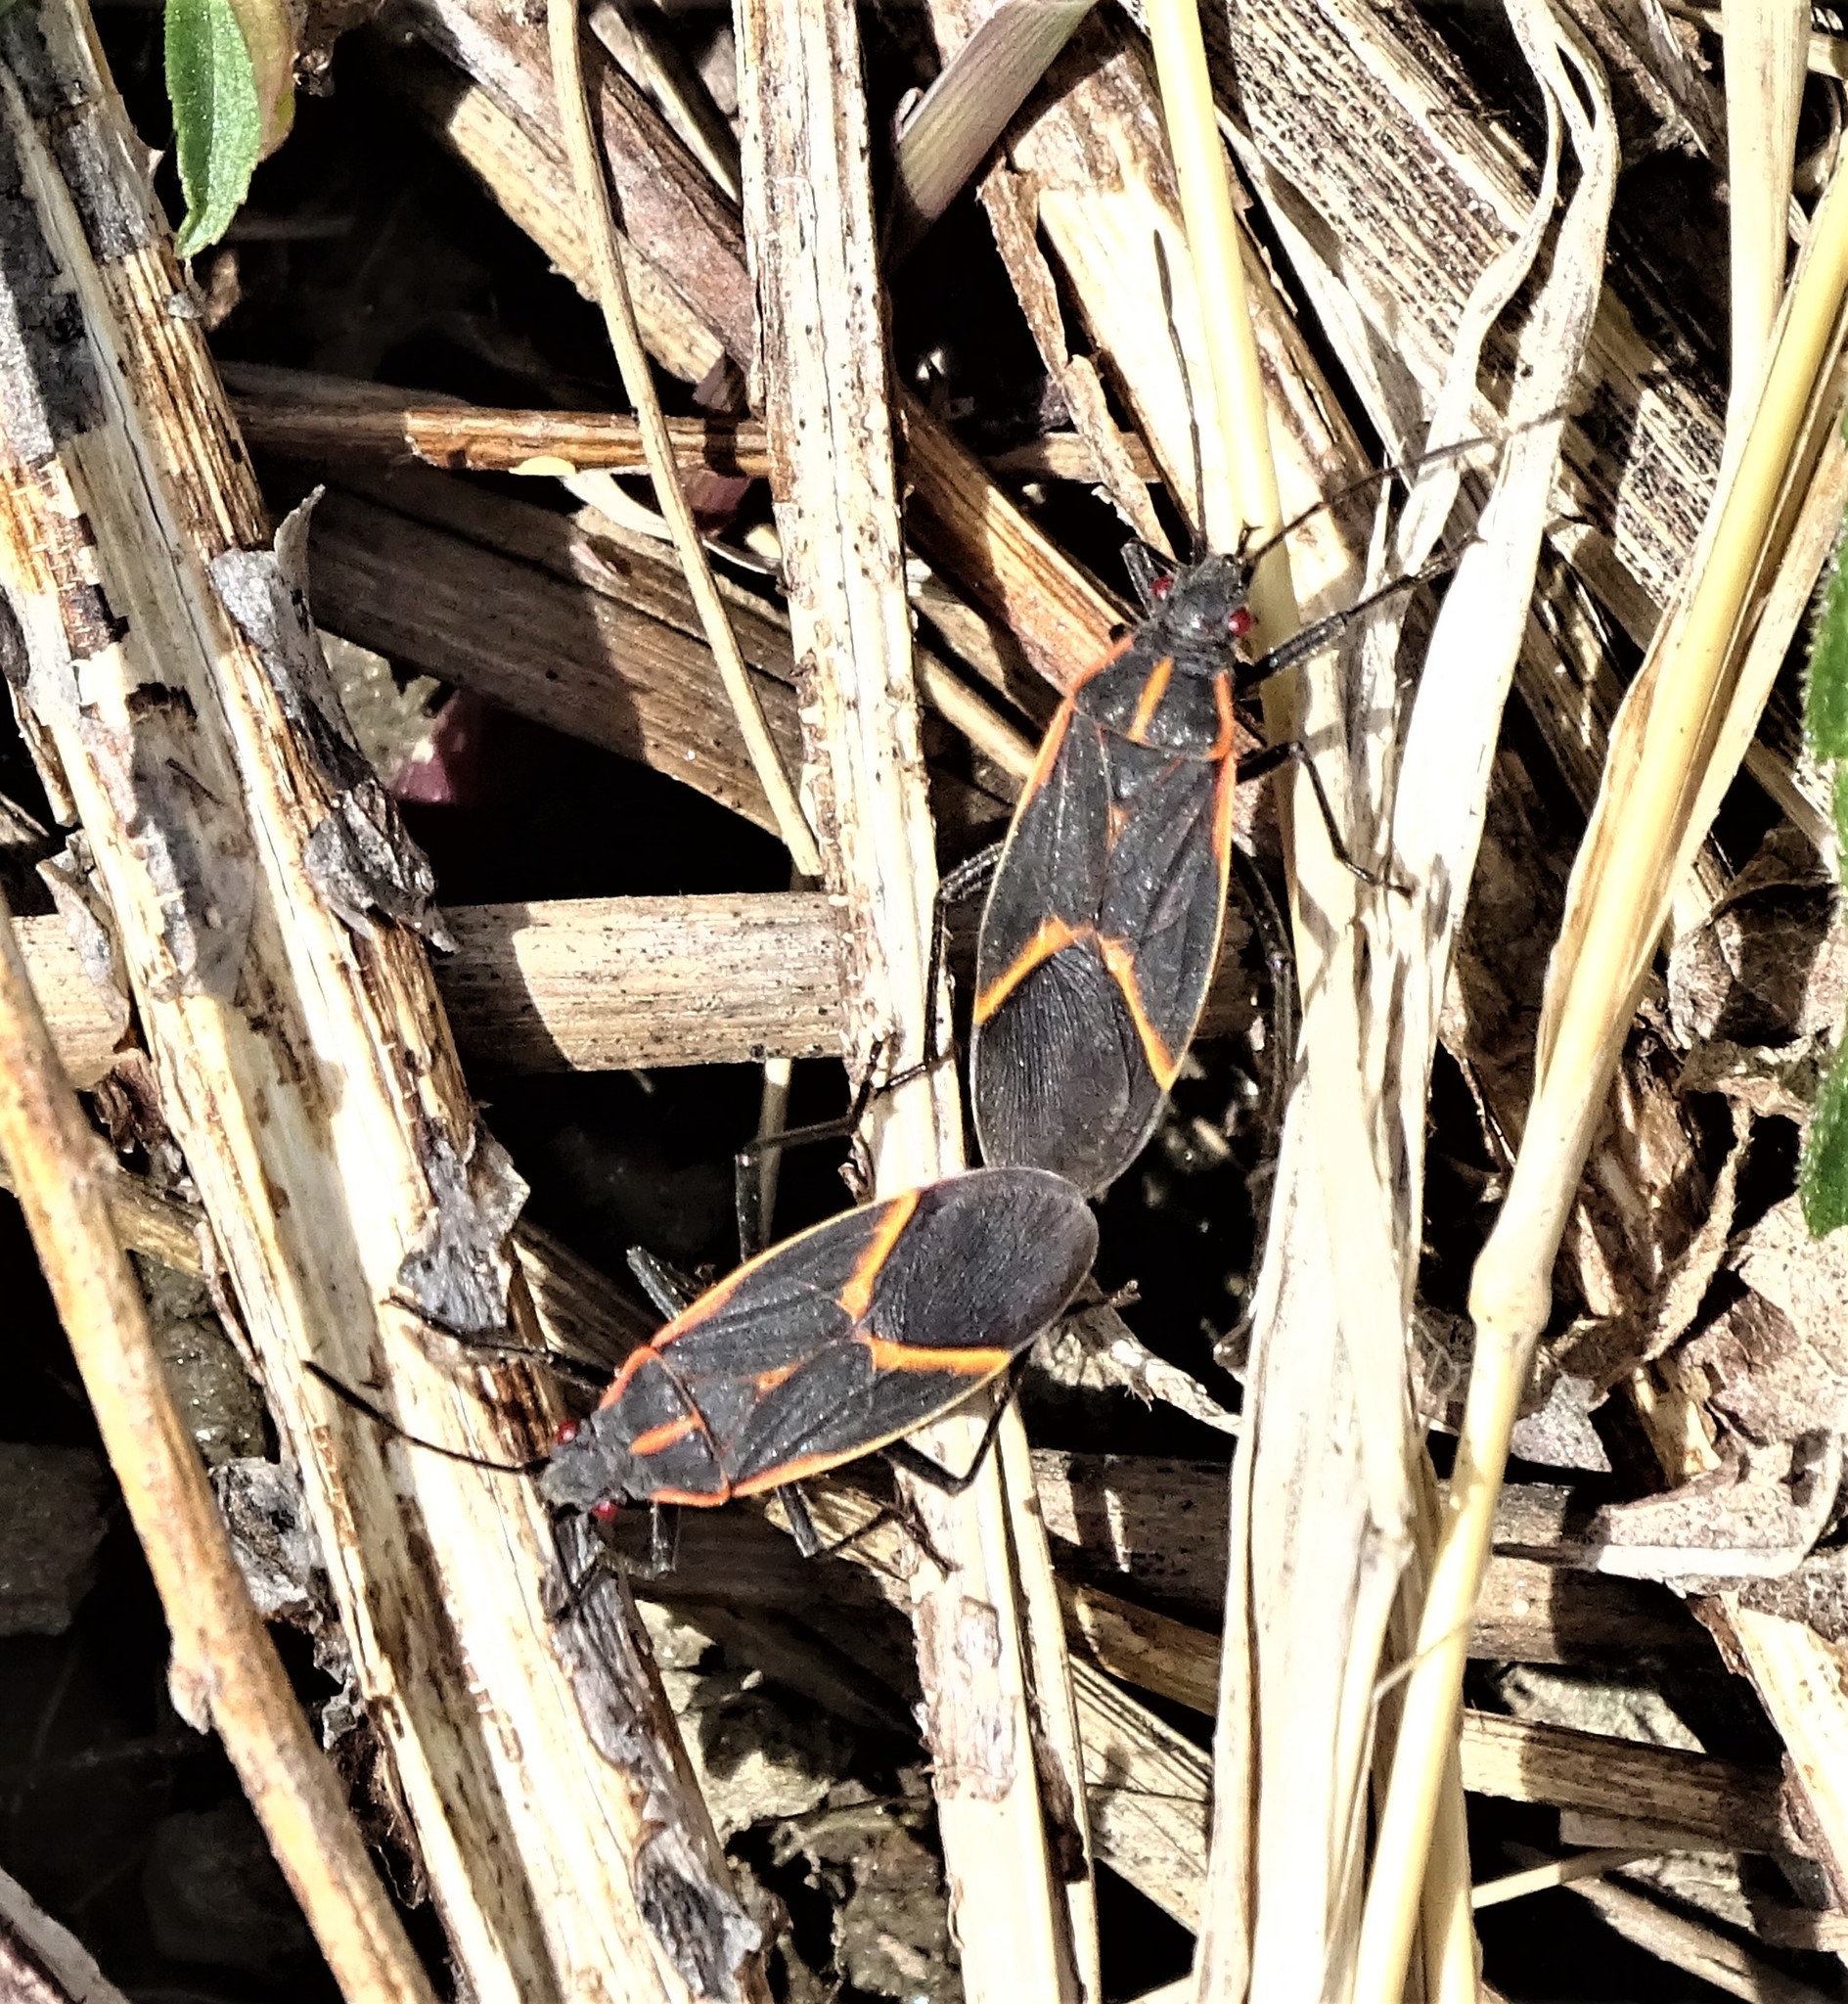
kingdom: Animalia
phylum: Arthropoda
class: Insecta
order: Hemiptera
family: Rhopalidae
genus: Boisea
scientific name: Boisea trivittata
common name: Boxelder bug
